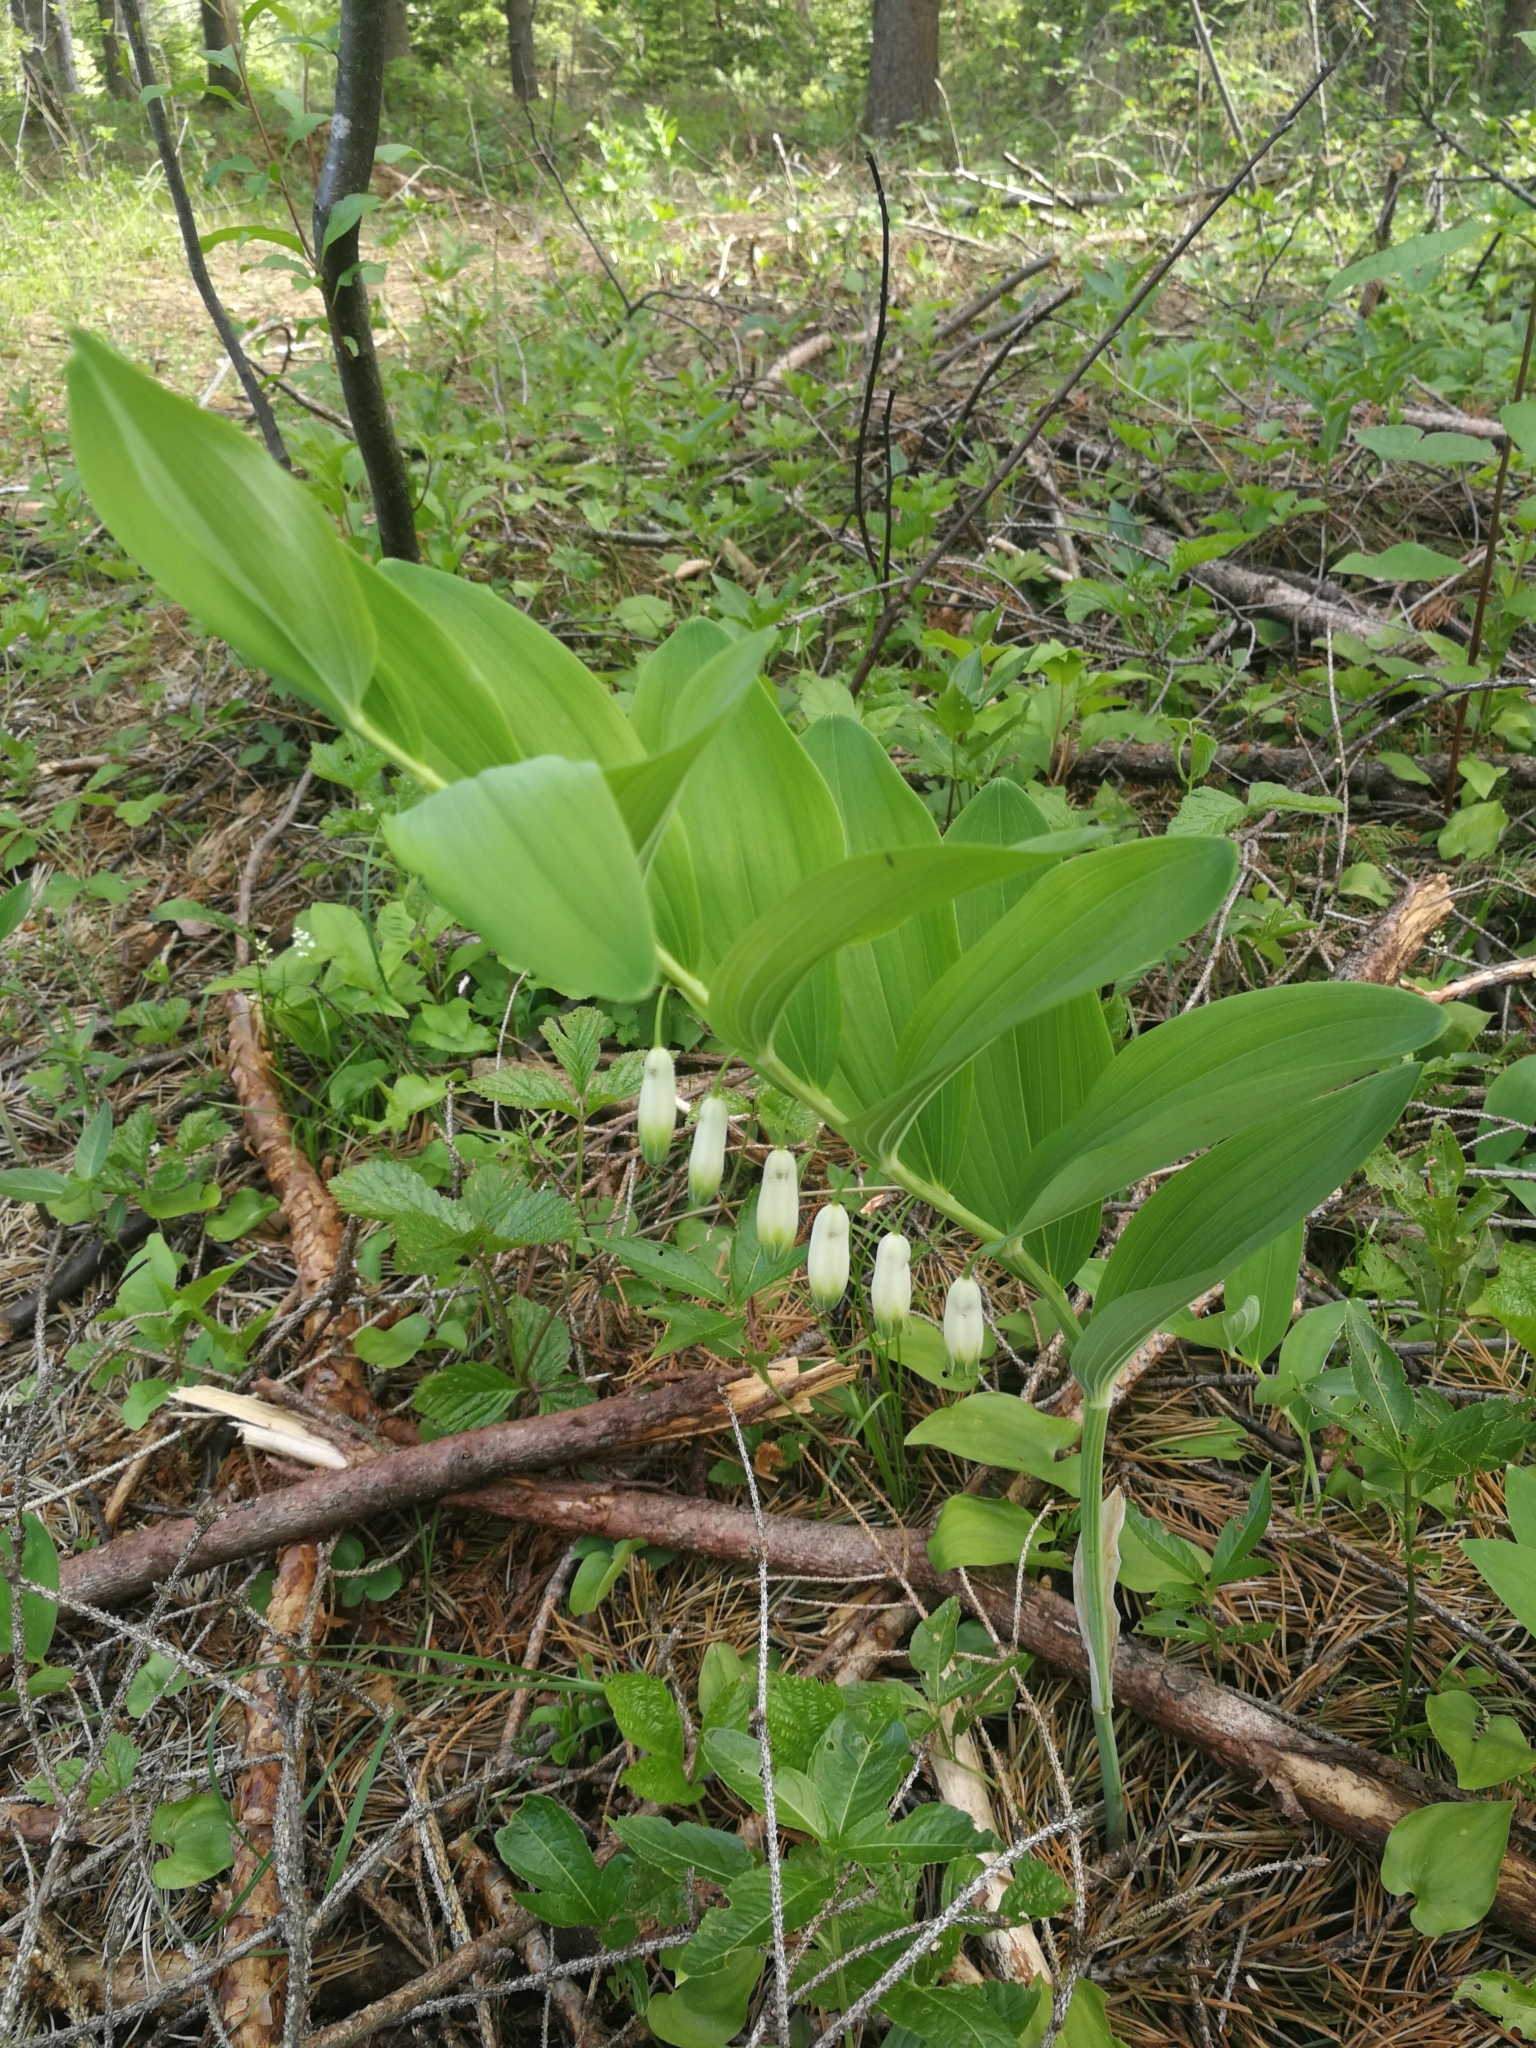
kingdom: Plantae
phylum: Tracheophyta
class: Liliopsida
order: Asparagales
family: Asparagaceae
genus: Polygonatum
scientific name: Polygonatum odoratum
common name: Angular solomon's-seal
